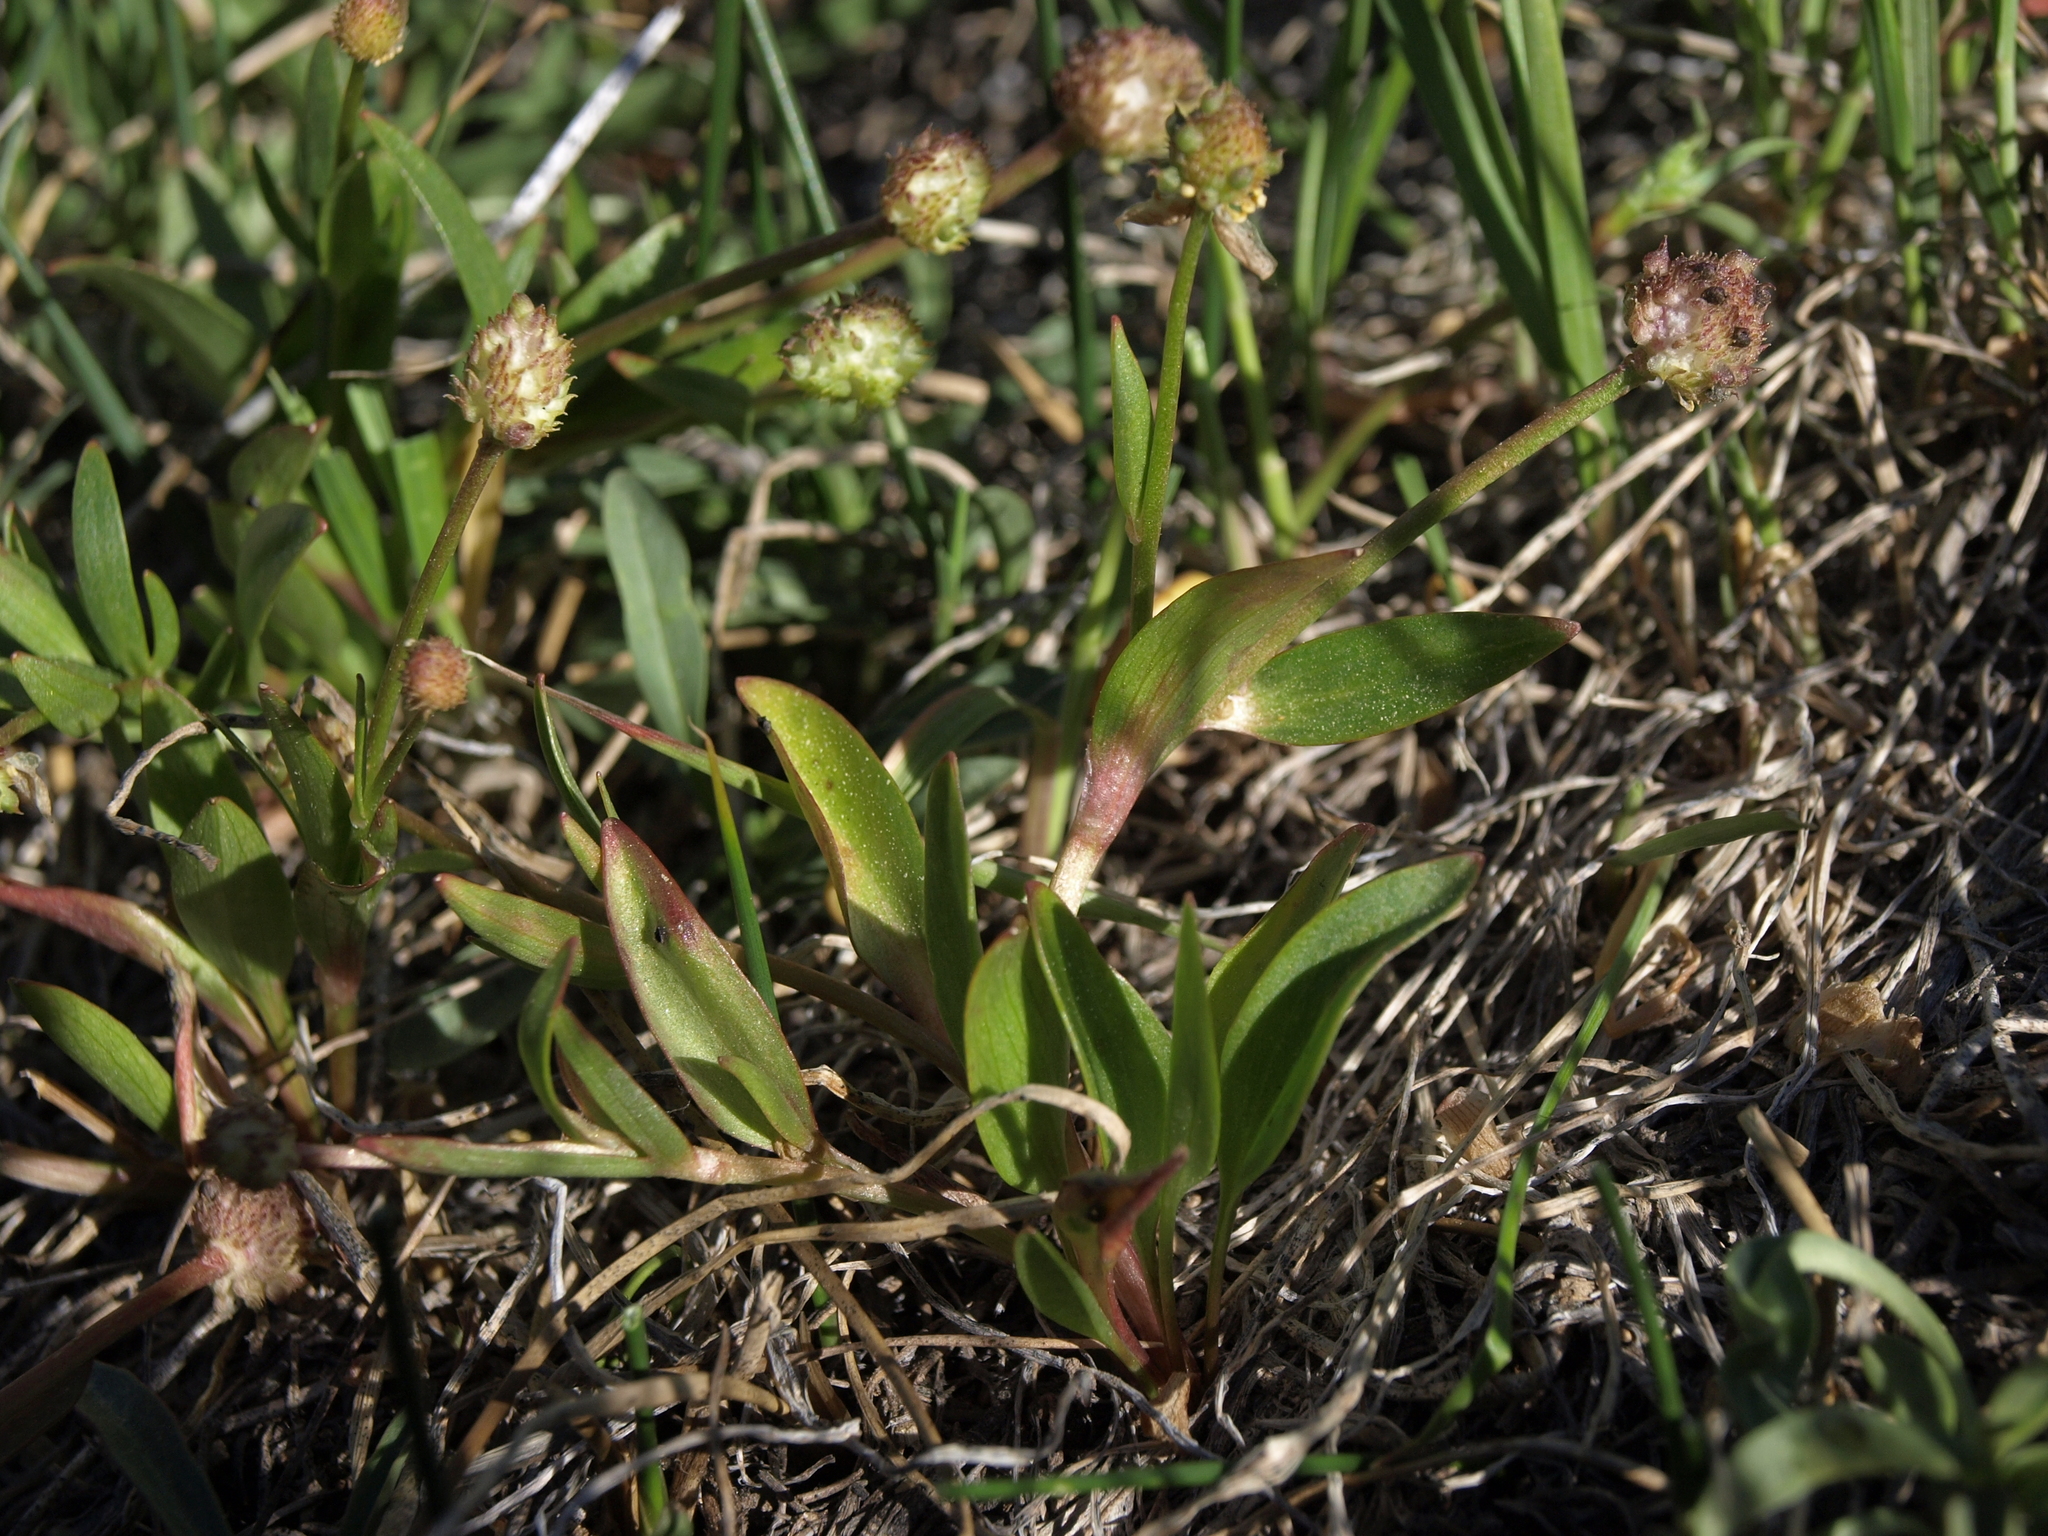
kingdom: Plantae
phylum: Tracheophyta
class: Magnoliopsida
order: Ranunculales
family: Ranunculaceae
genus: Ranunculus
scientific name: Ranunculus glaberrimus
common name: Sagebrush buttercup
